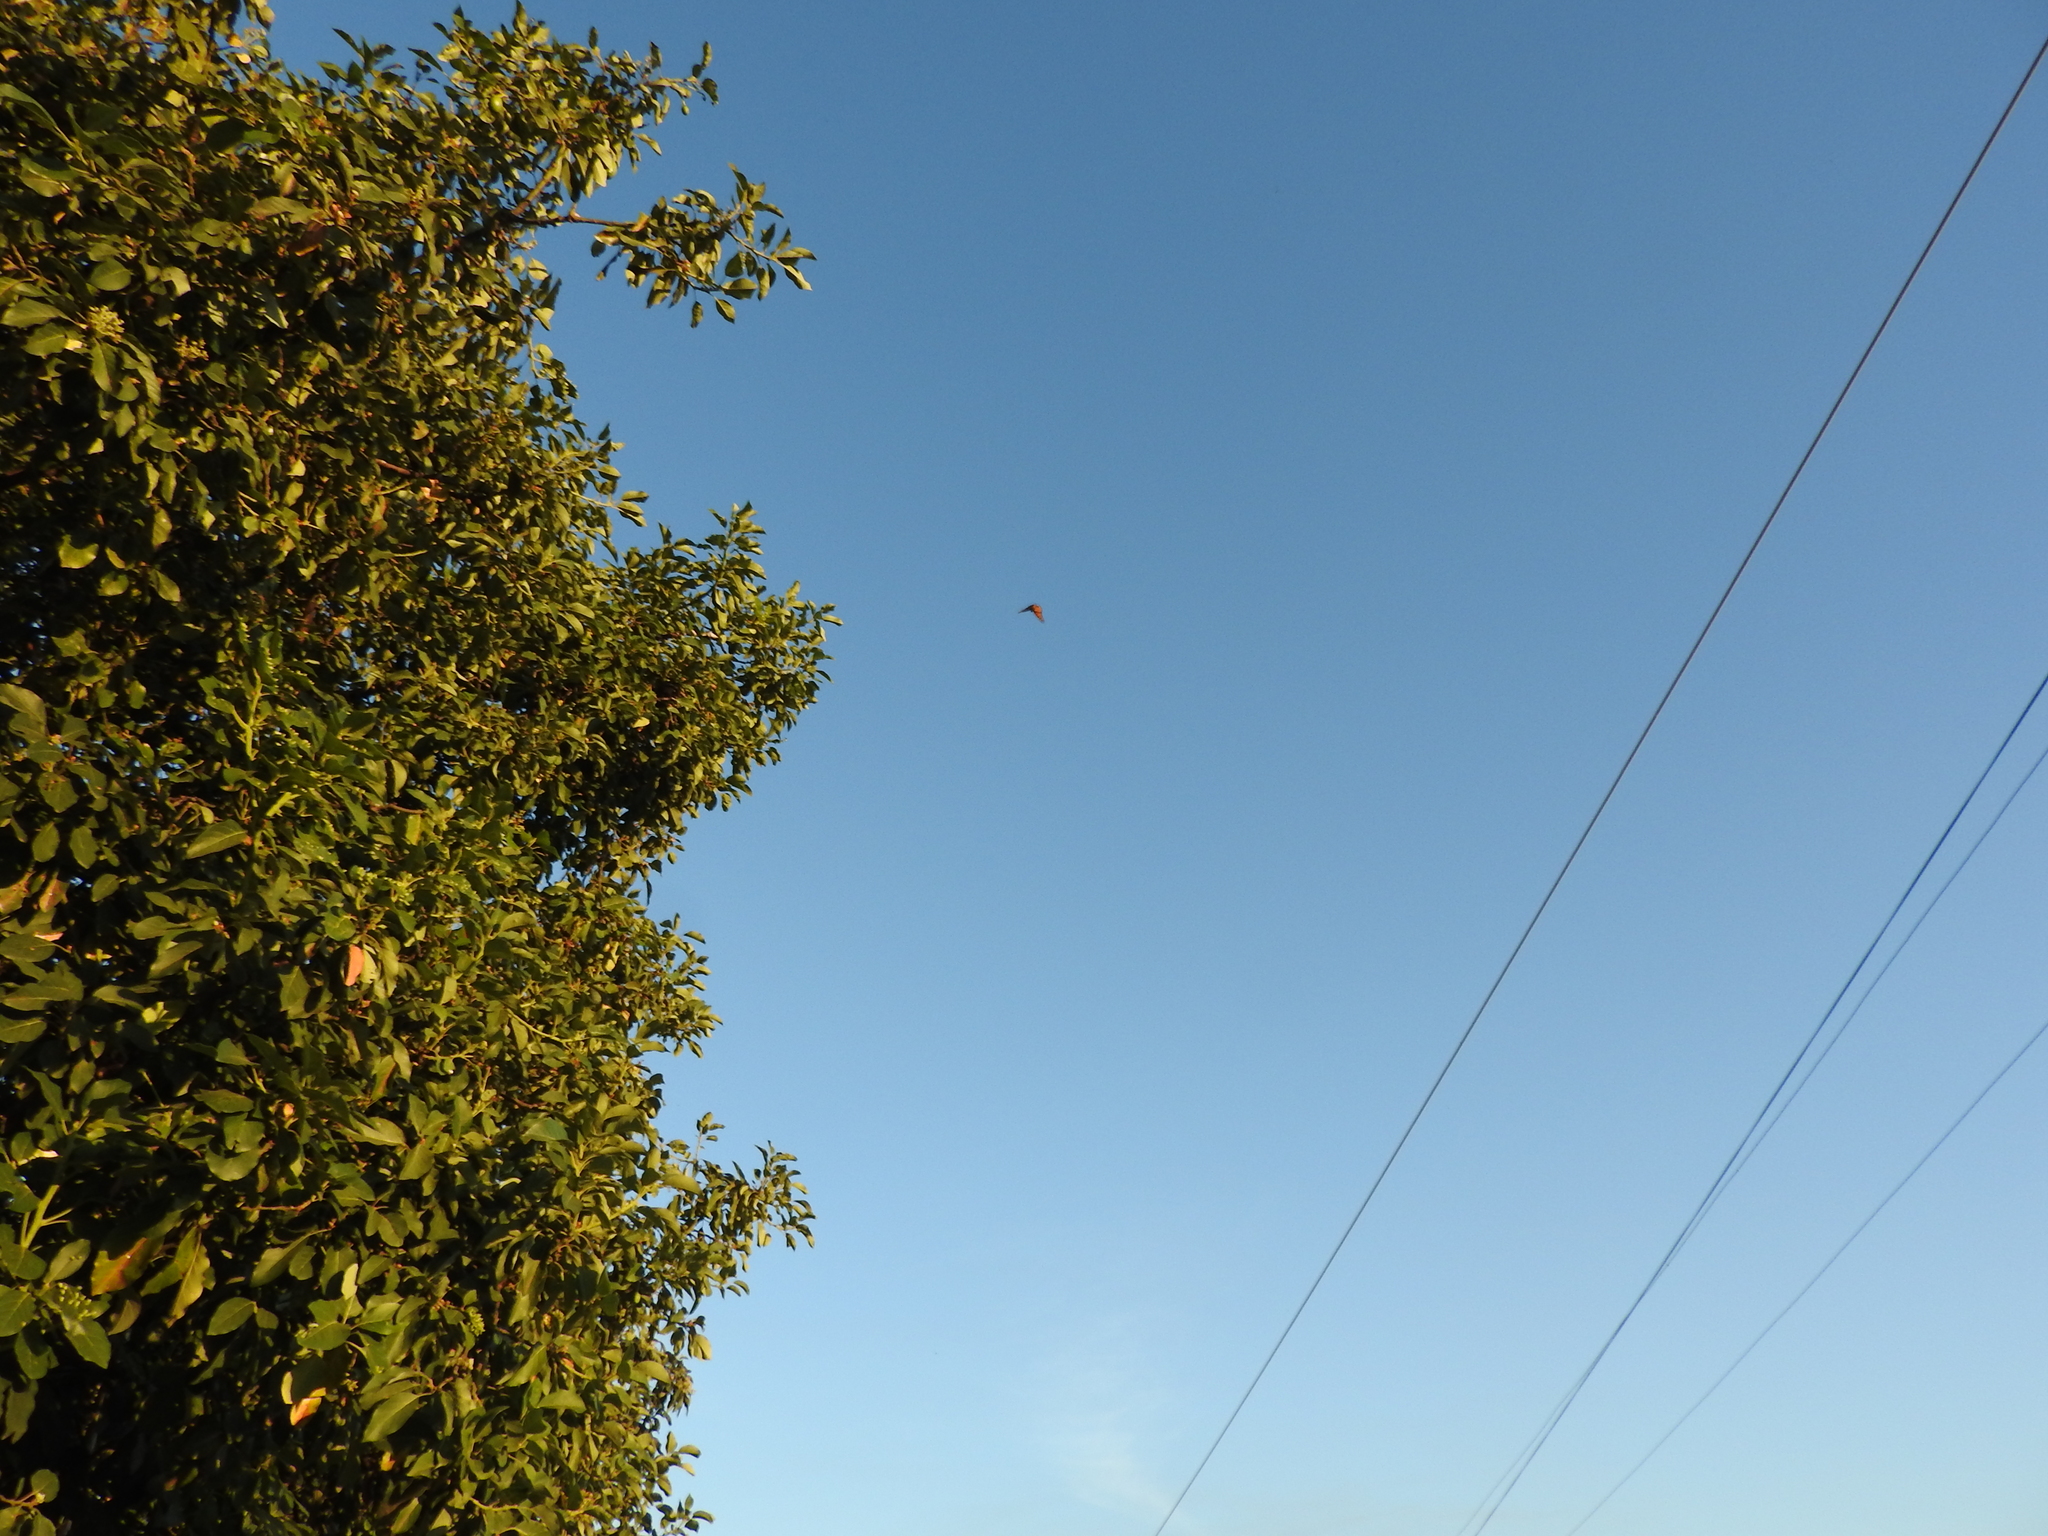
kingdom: Animalia
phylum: Arthropoda
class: Insecta
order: Lepidoptera
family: Nymphalidae
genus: Danaus
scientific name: Danaus plexippus
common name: Monarch
